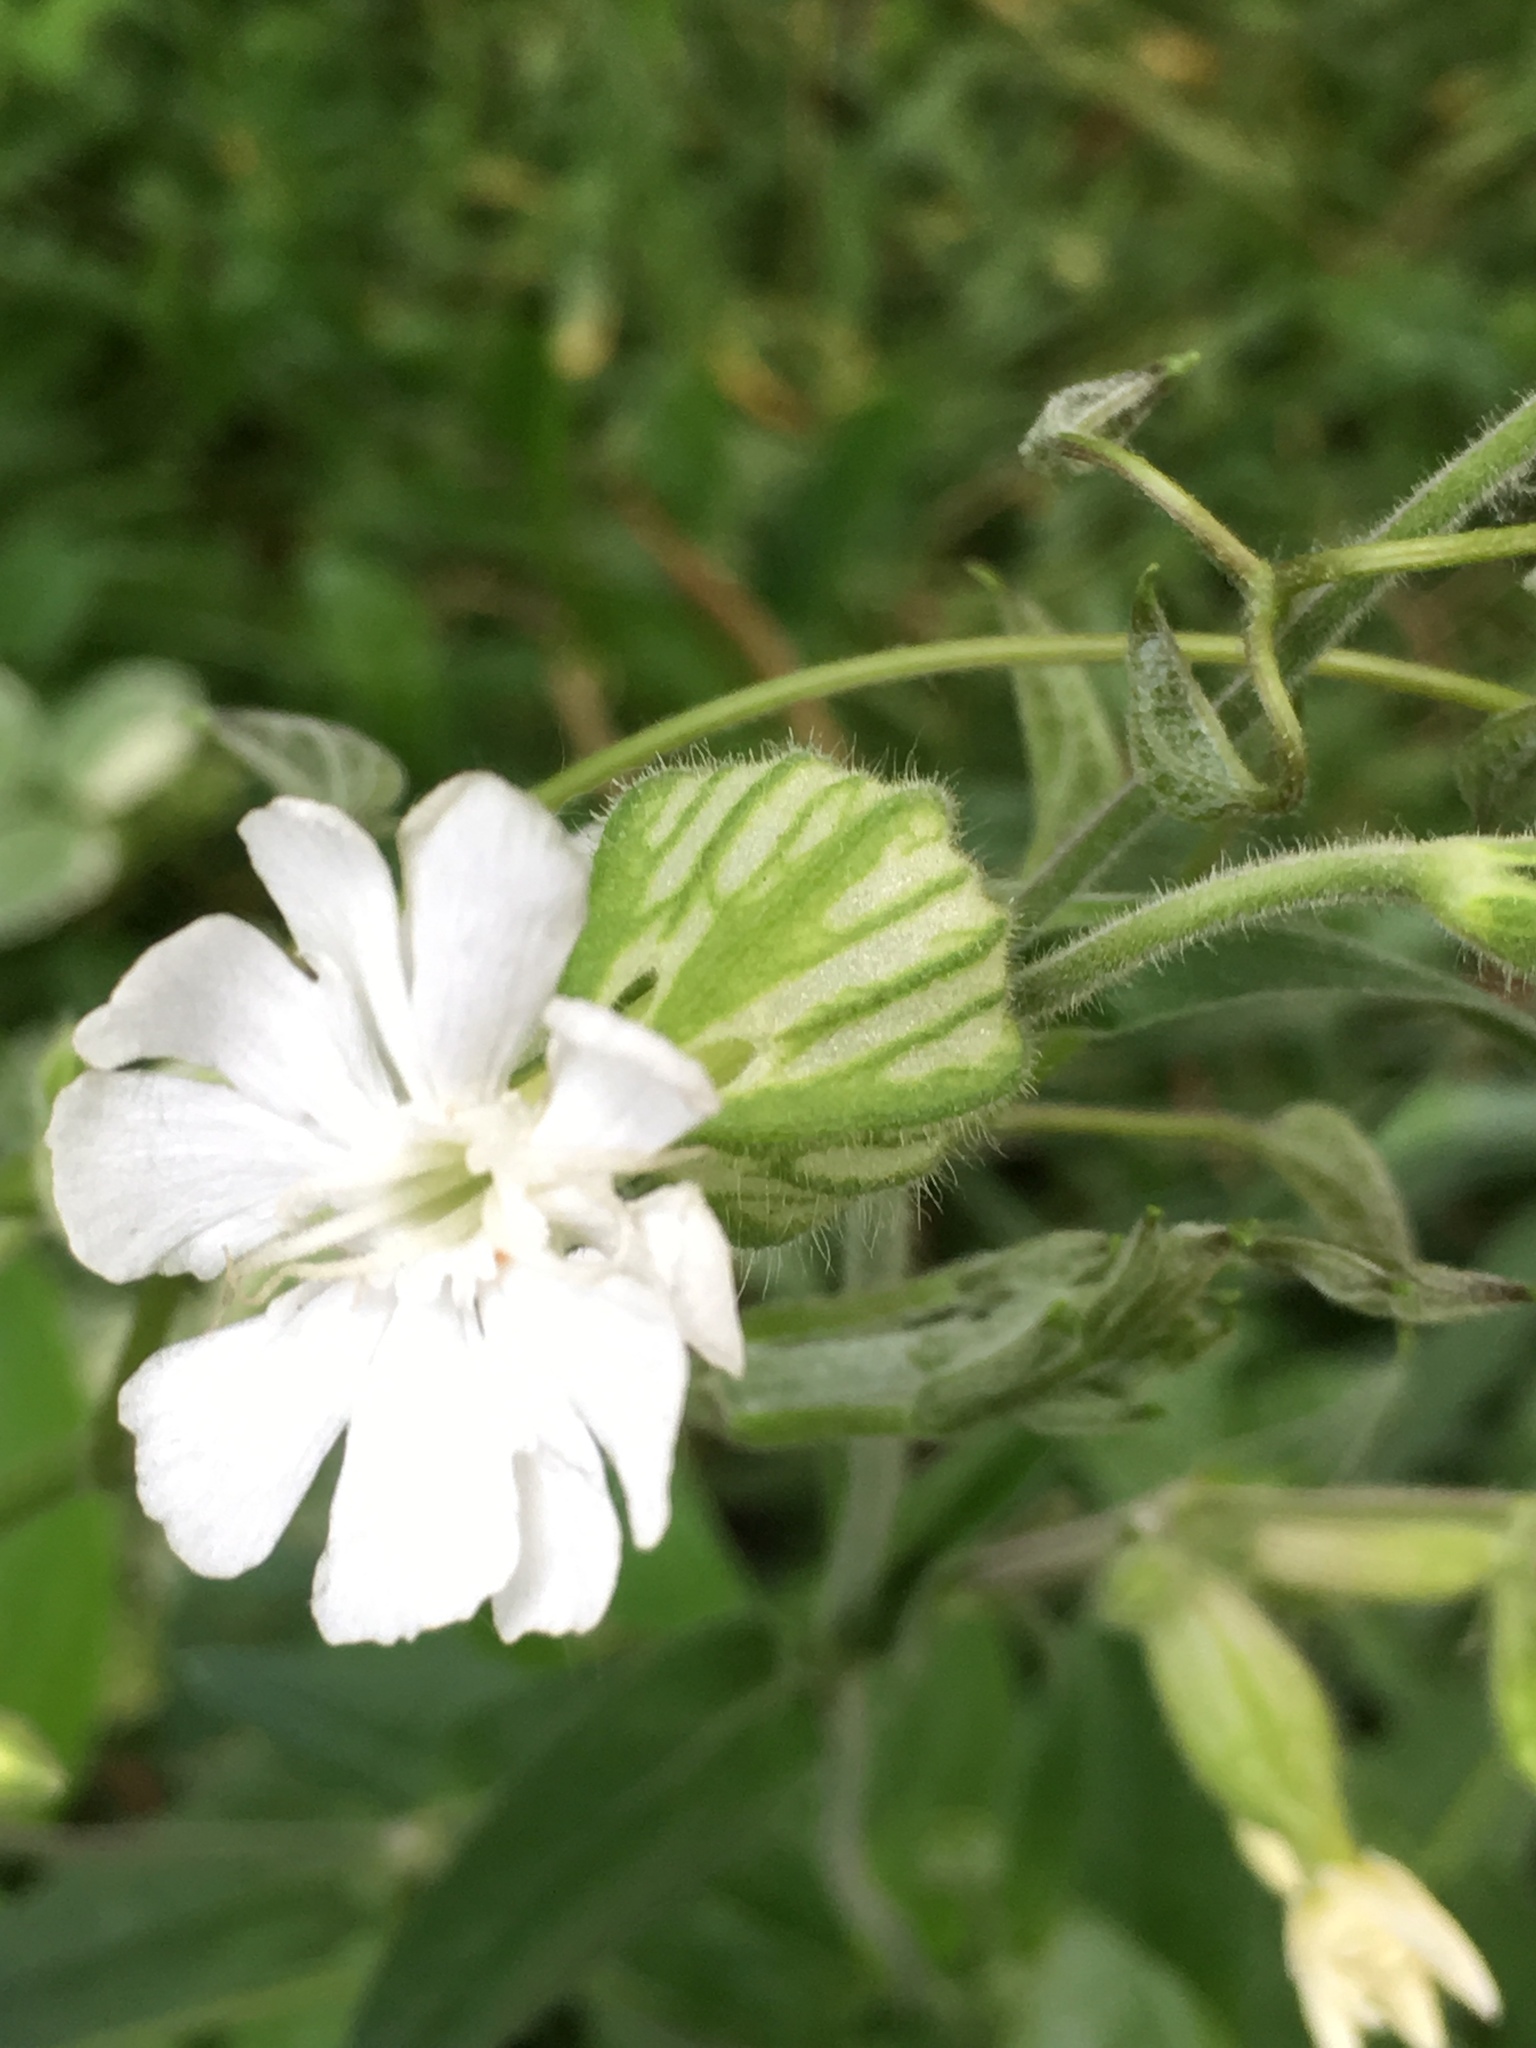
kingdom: Plantae
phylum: Tracheophyta
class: Magnoliopsida
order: Caryophyllales
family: Caryophyllaceae
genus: Silene
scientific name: Silene latifolia
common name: White campion
